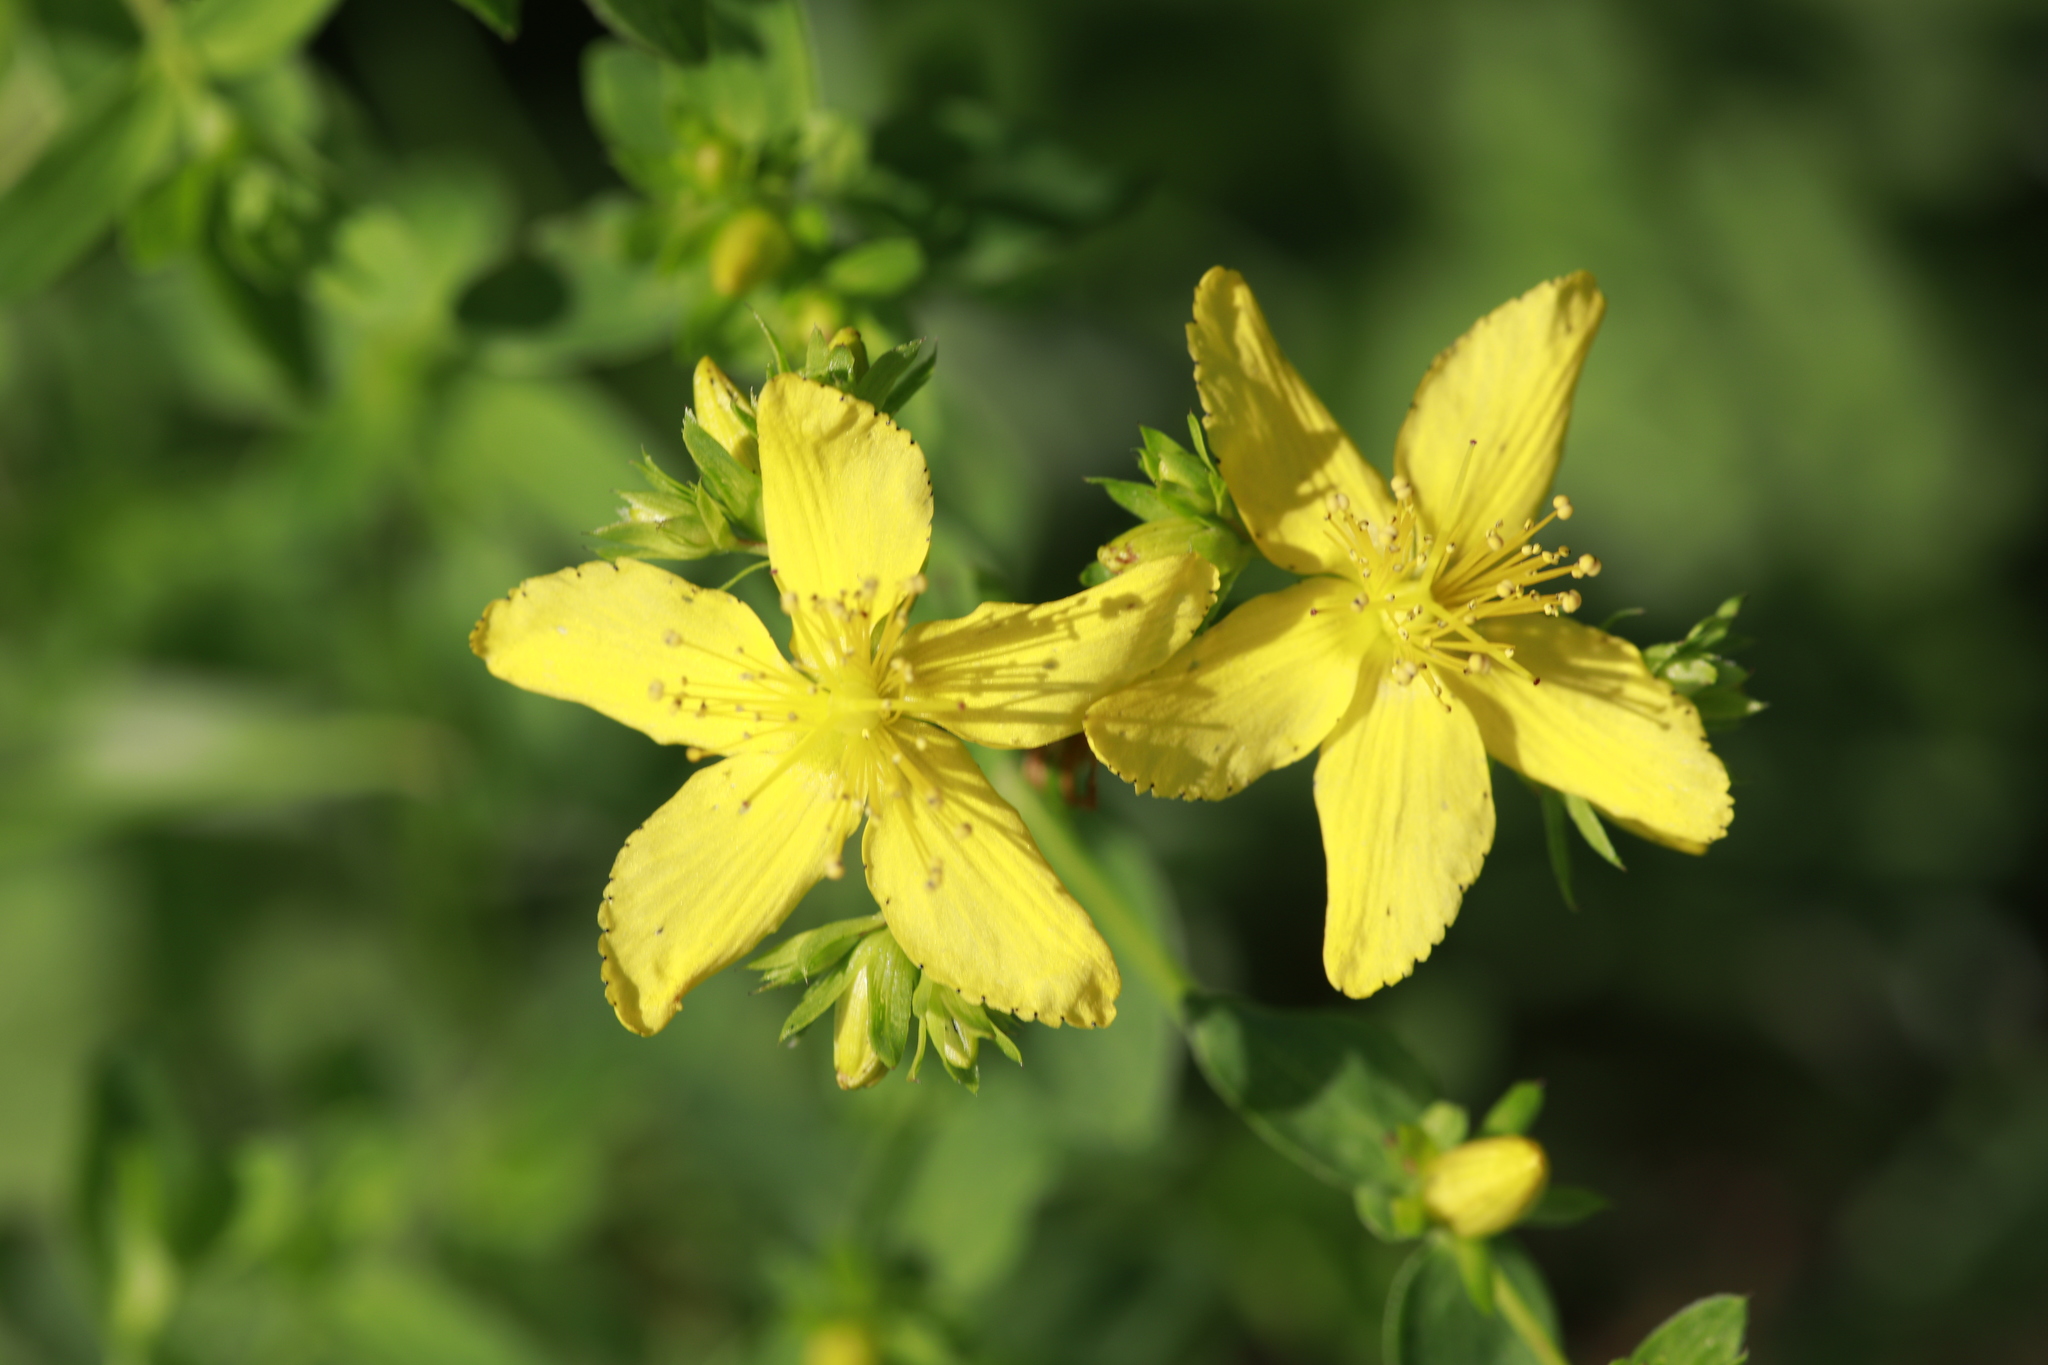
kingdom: Plantae
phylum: Tracheophyta
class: Magnoliopsida
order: Malpighiales
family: Hypericaceae
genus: Hypericum
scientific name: Hypericum perforatum
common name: Common st. johnswort
